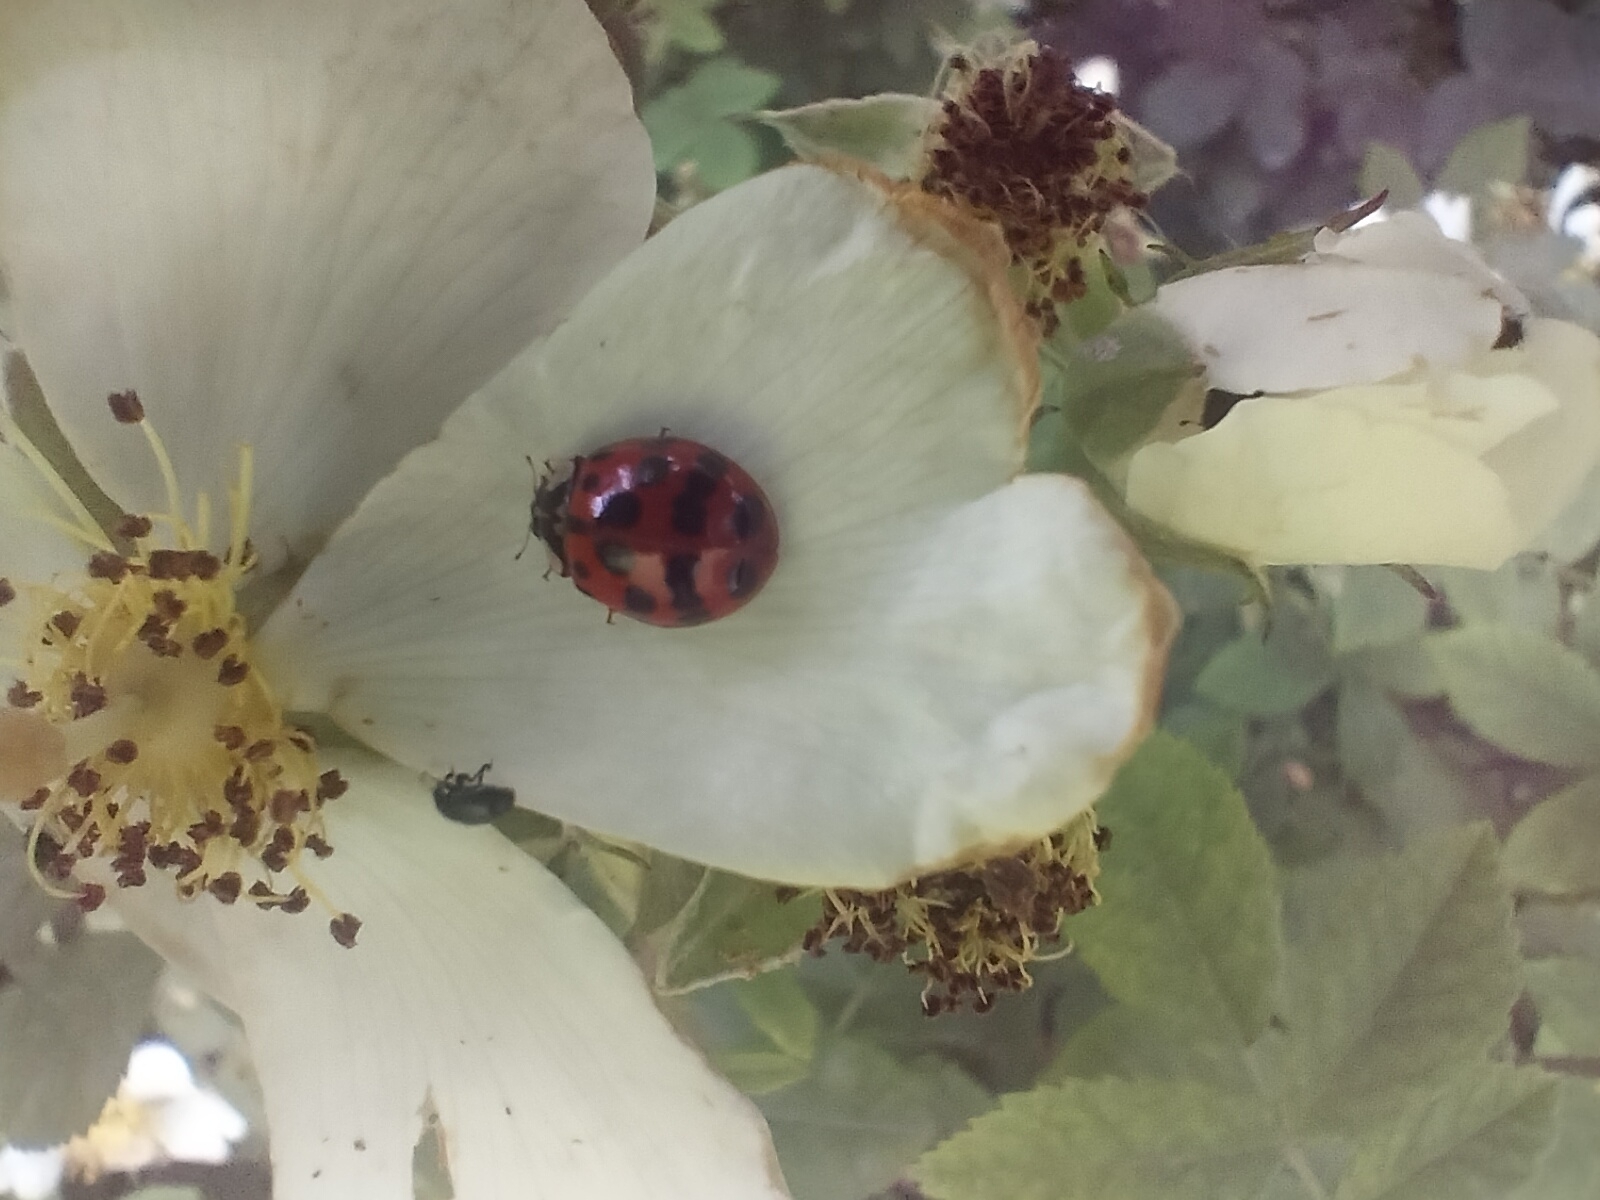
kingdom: Animalia
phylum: Arthropoda
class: Insecta
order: Coleoptera
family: Coccinellidae
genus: Harmonia
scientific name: Harmonia axyridis
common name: Harlequin ladybird
